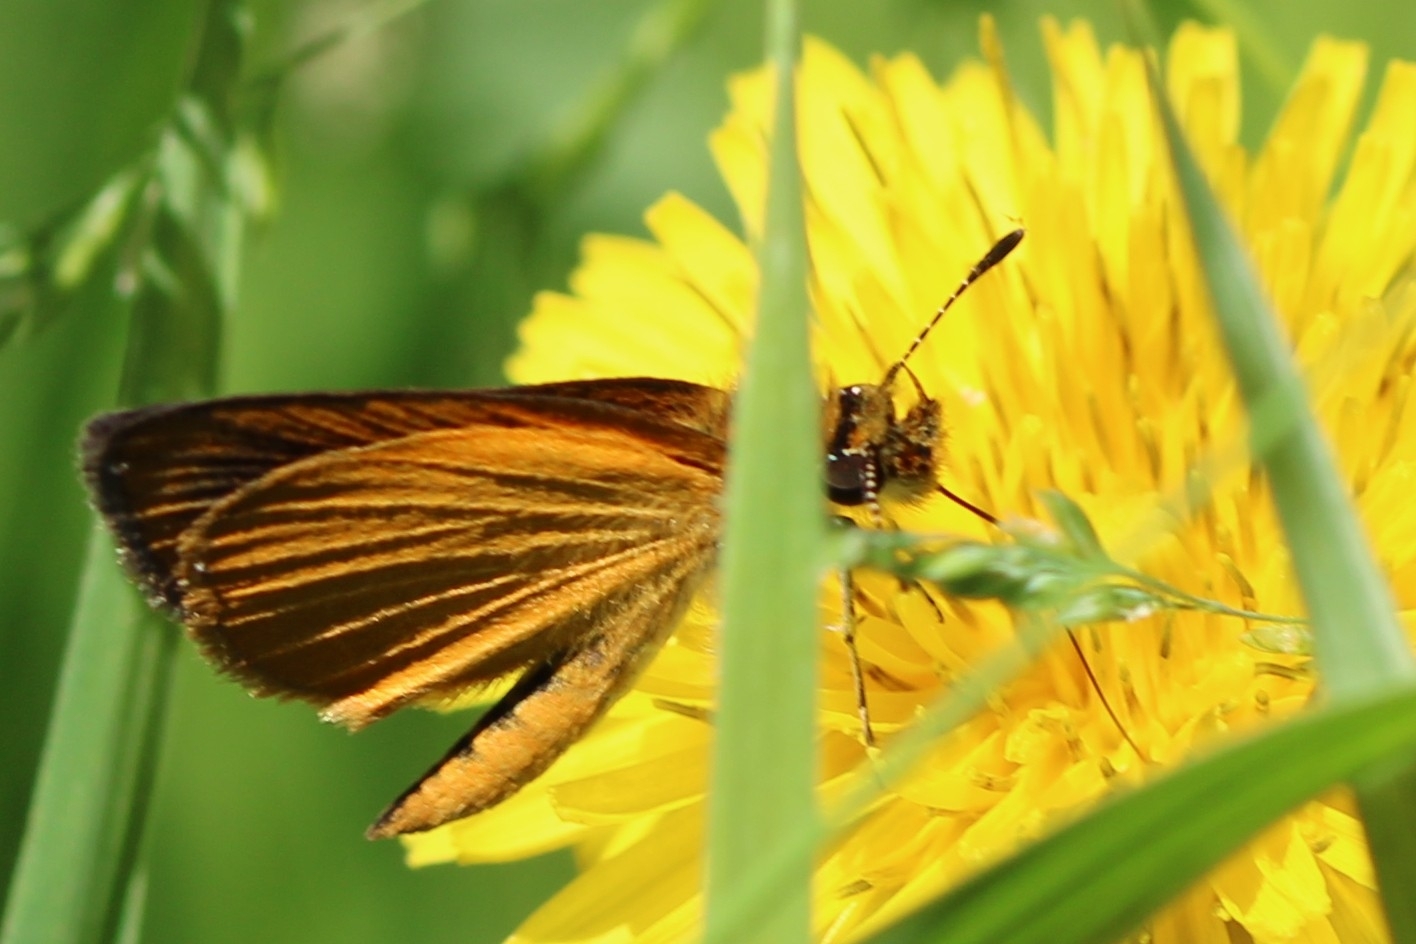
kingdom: Animalia
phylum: Arthropoda
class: Insecta
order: Lepidoptera
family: Hesperiidae
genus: Ancyloxypha
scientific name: Ancyloxypha numitor
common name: Least skipper
